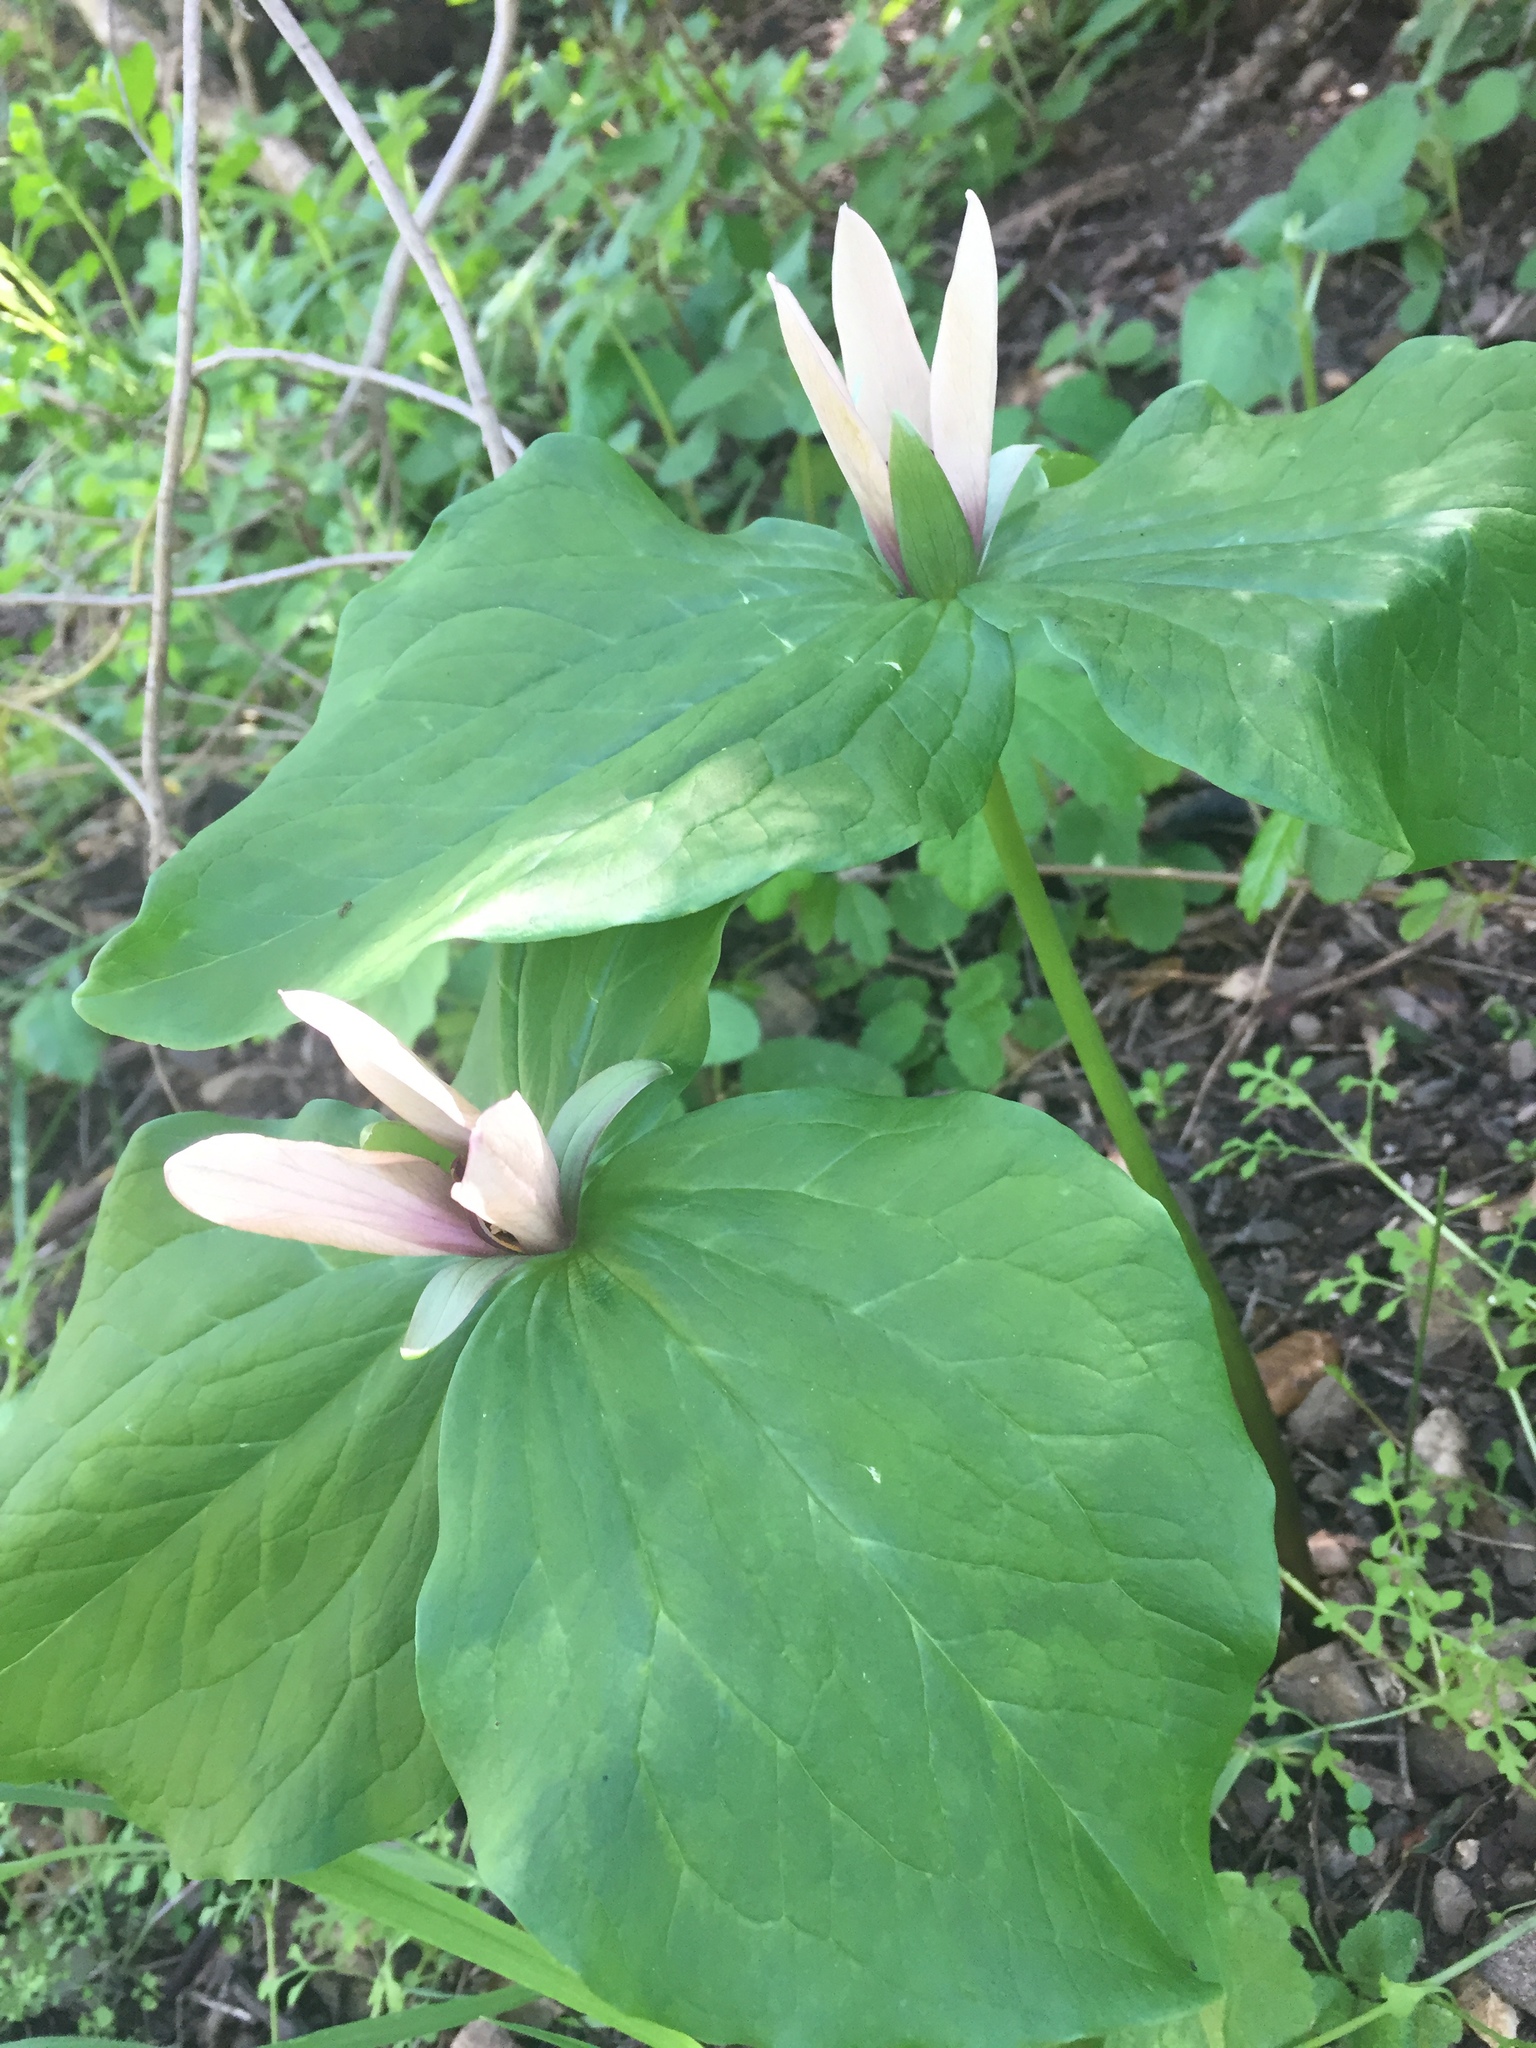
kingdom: Plantae
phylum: Tracheophyta
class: Liliopsida
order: Liliales
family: Melanthiaceae
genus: Trillium
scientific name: Trillium chloropetalum
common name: Giant trillium
